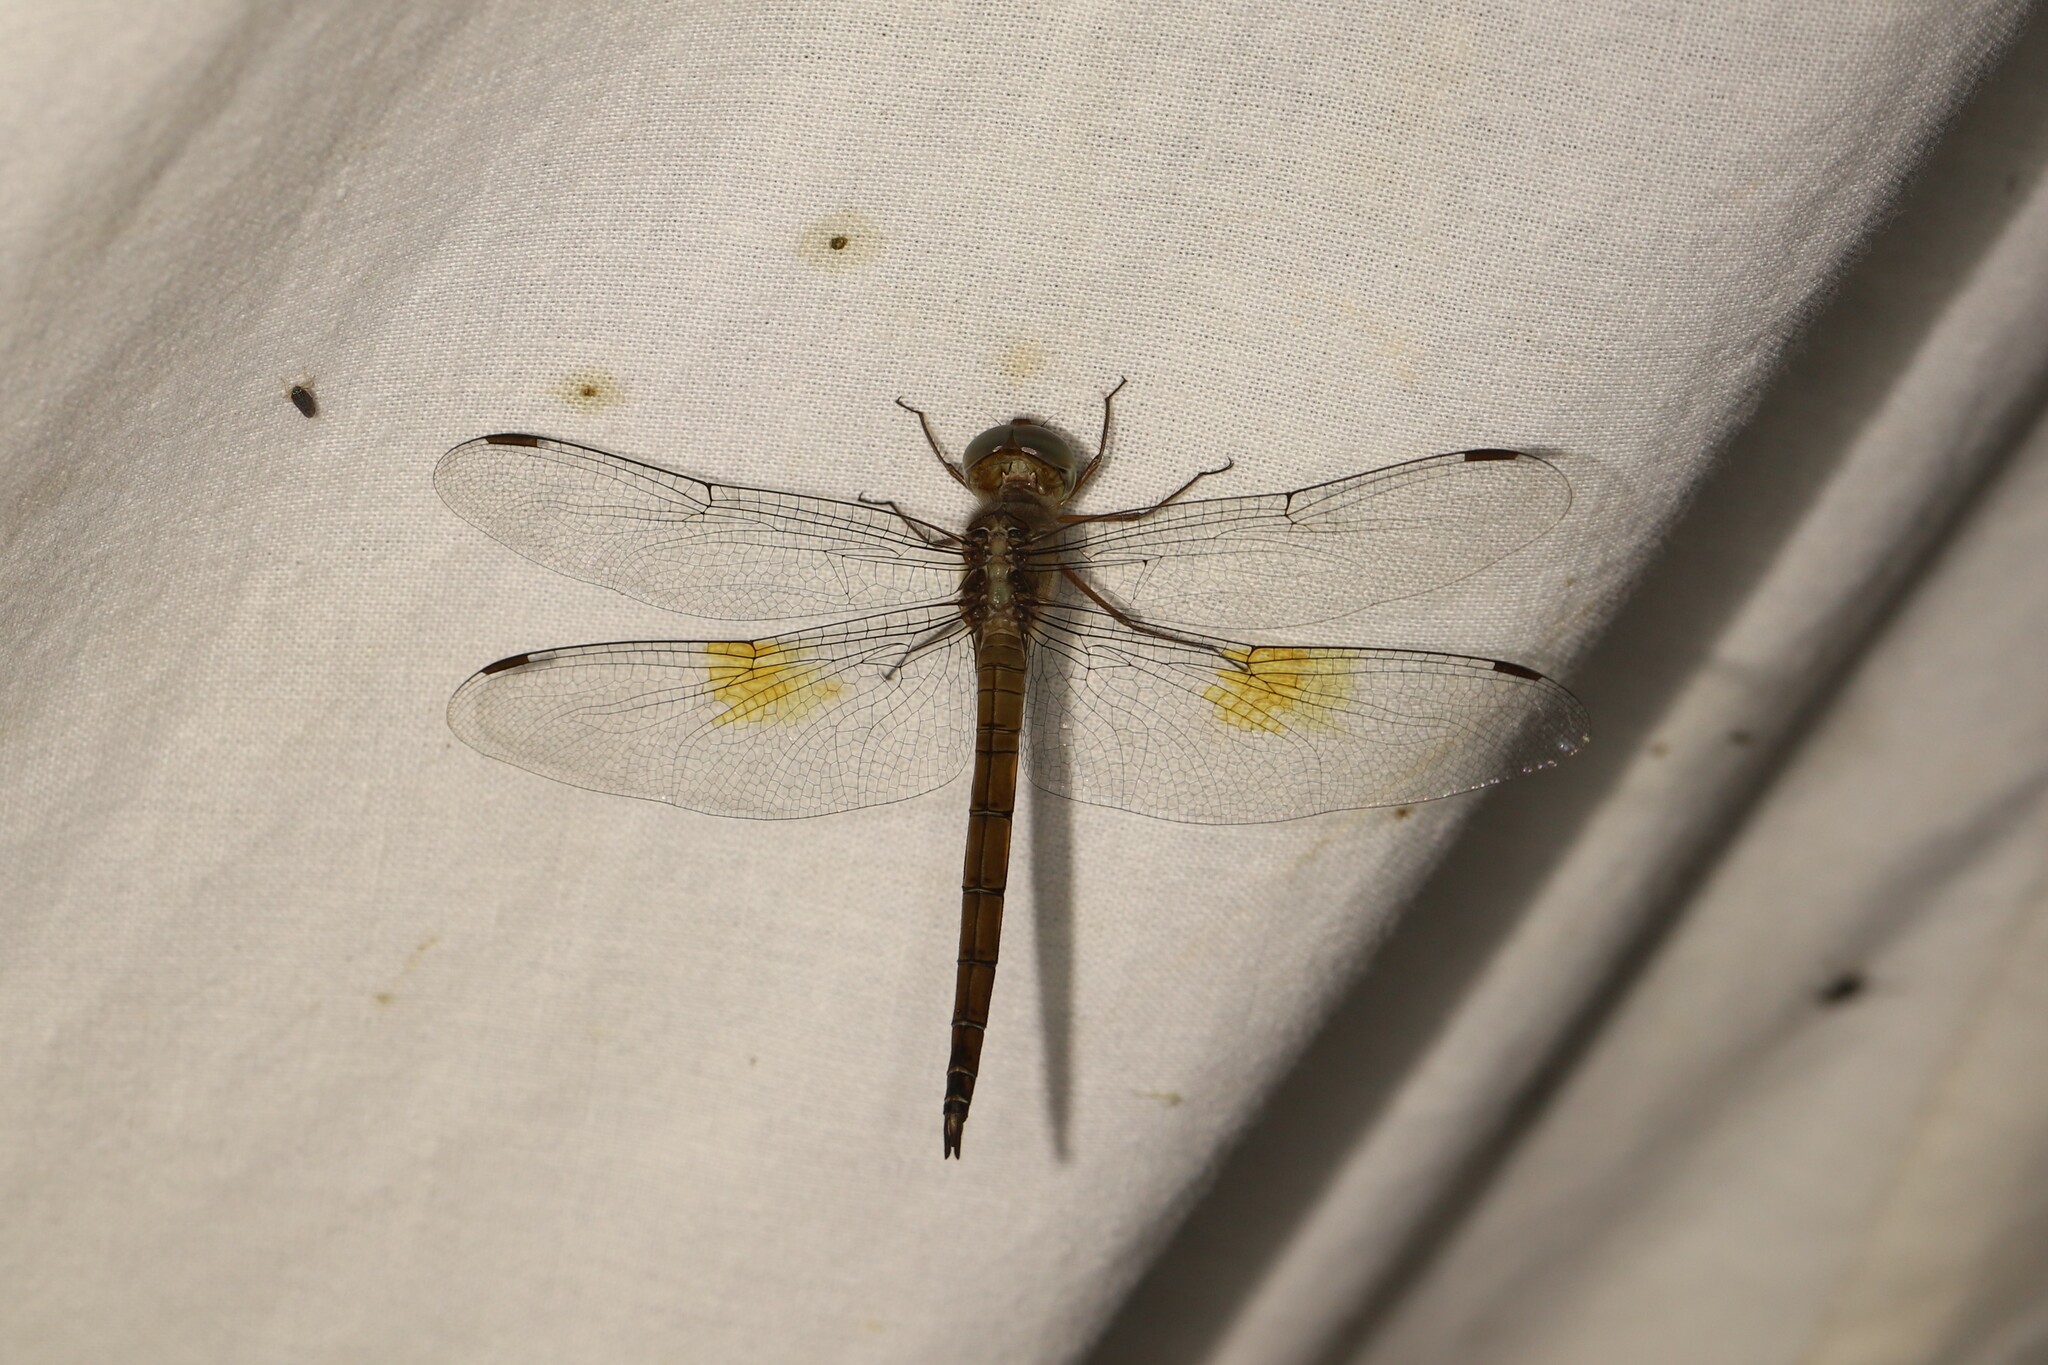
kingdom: Animalia
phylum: Arthropoda
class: Insecta
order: Odonata
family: Libellulidae
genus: Tholymis
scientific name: Tholymis citrina
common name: Evening skimmer
